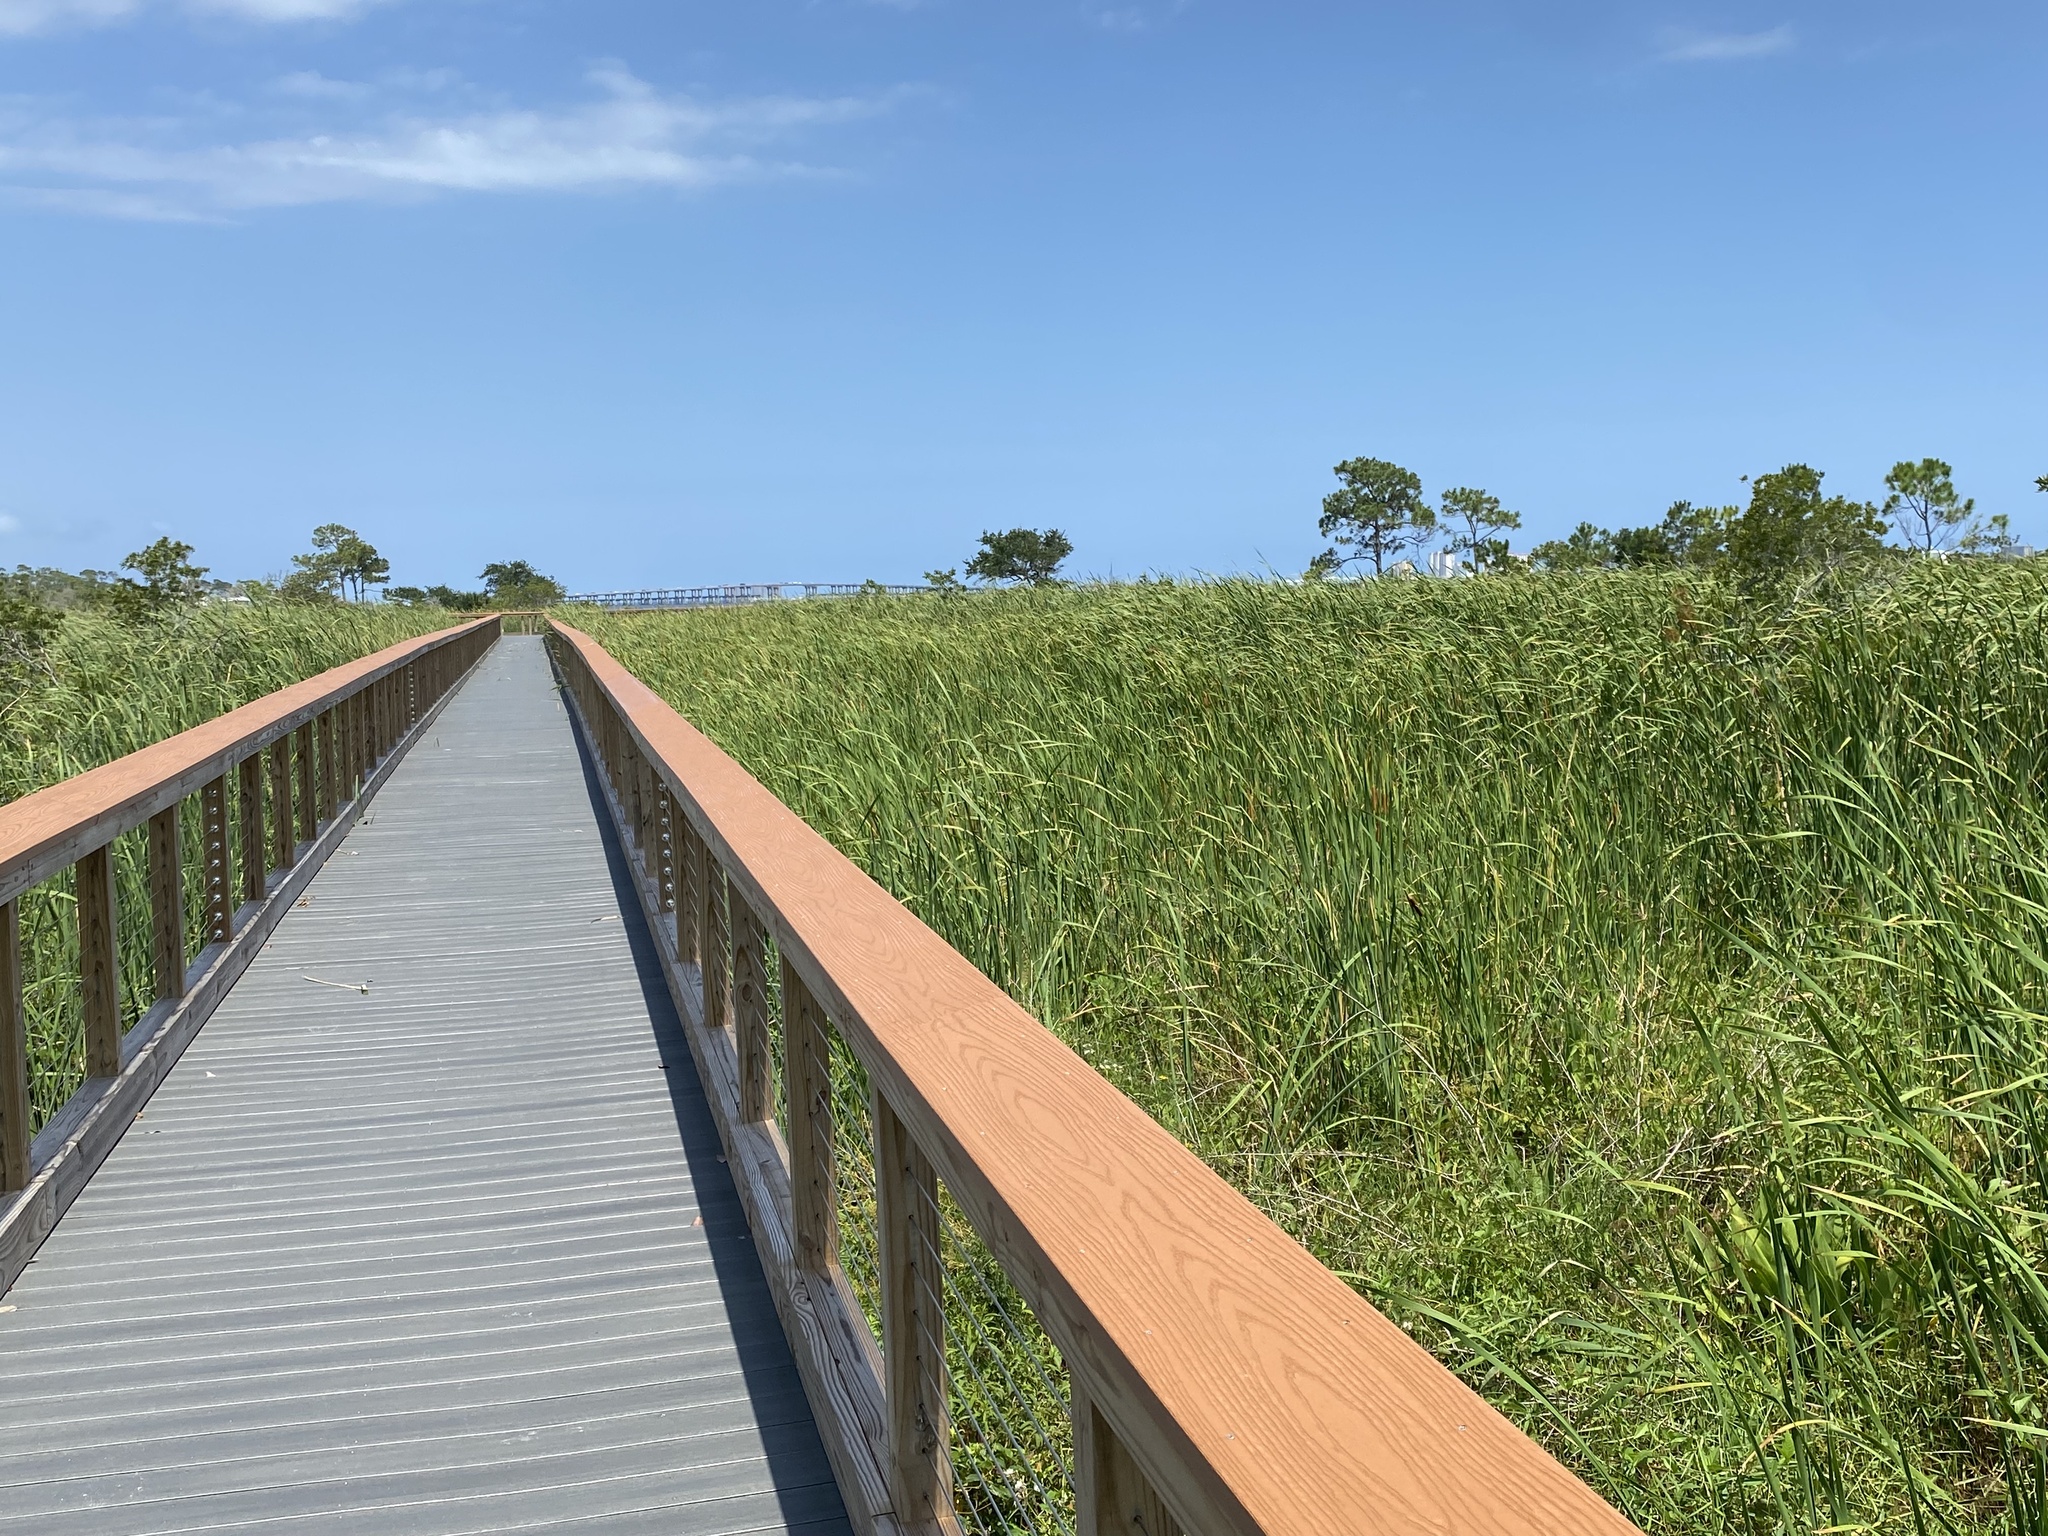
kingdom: Plantae
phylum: Tracheophyta
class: Liliopsida
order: Poales
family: Typhaceae
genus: Typha
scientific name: Typha domingensis
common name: Southern cattail
